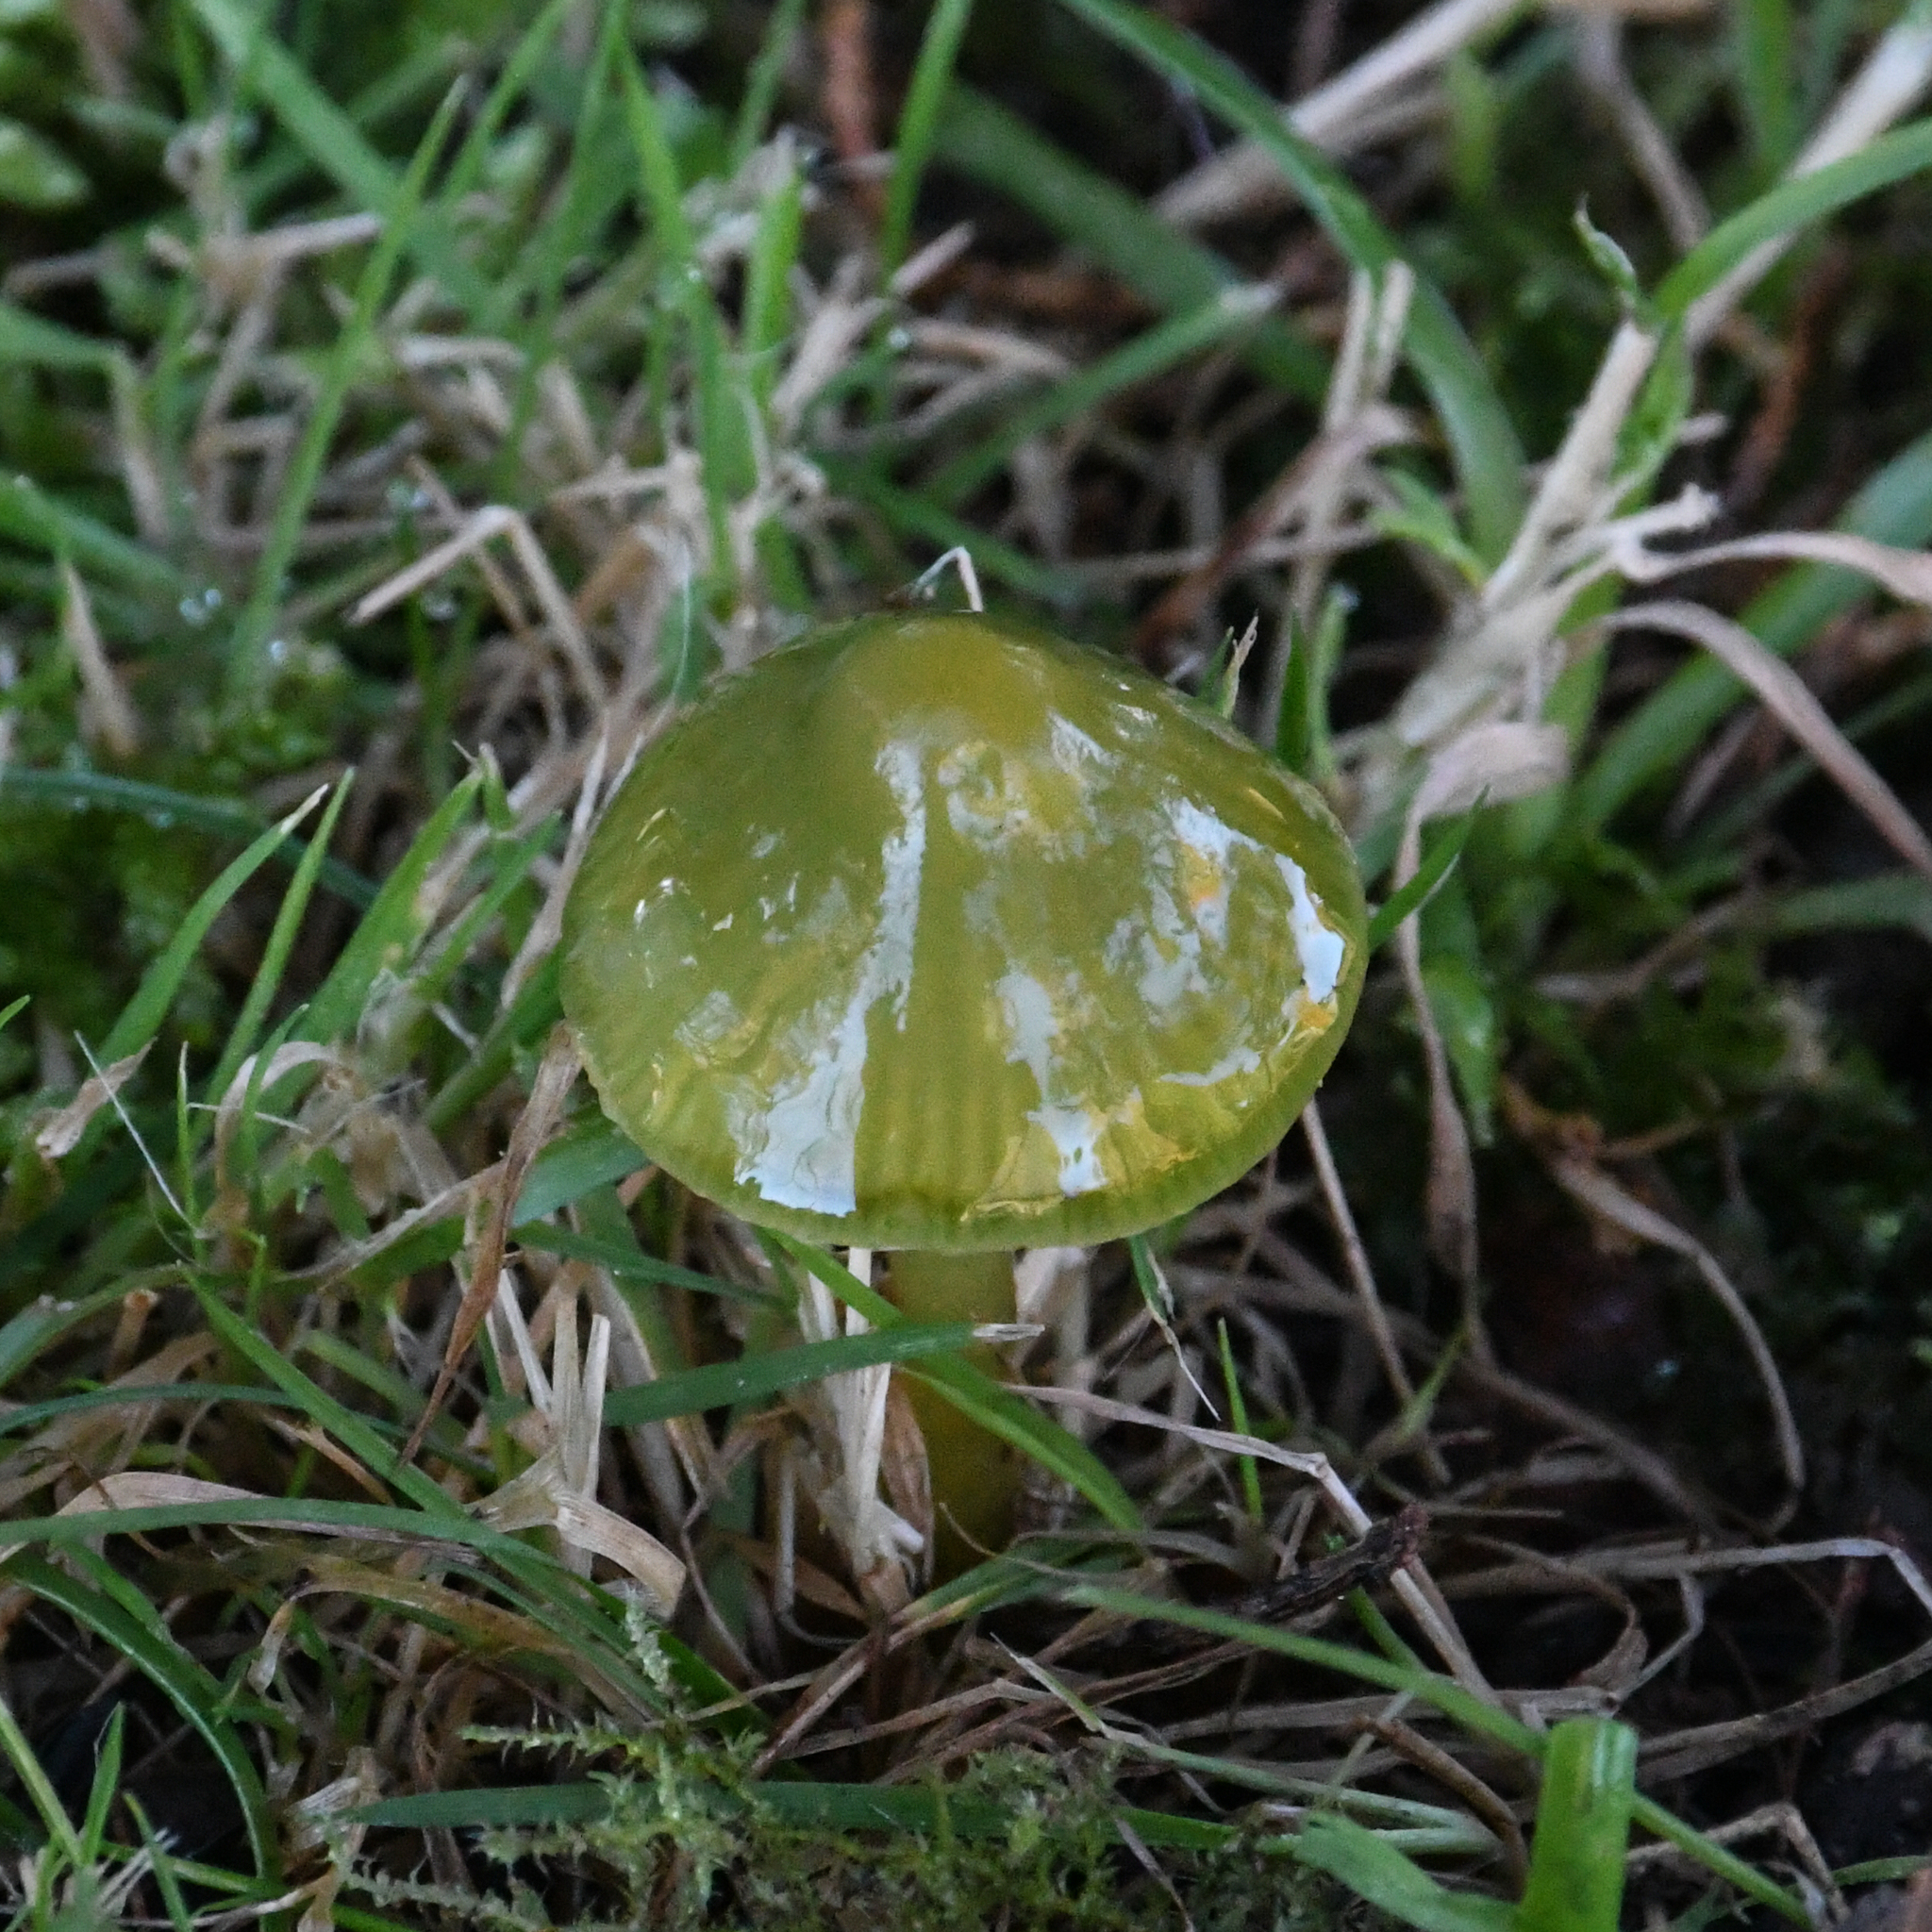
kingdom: Fungi
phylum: Basidiomycota
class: Agaricomycetes
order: Agaricales
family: Hygrophoraceae
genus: Gliophorus
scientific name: Gliophorus psittacinus
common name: Parrot wax-cap
